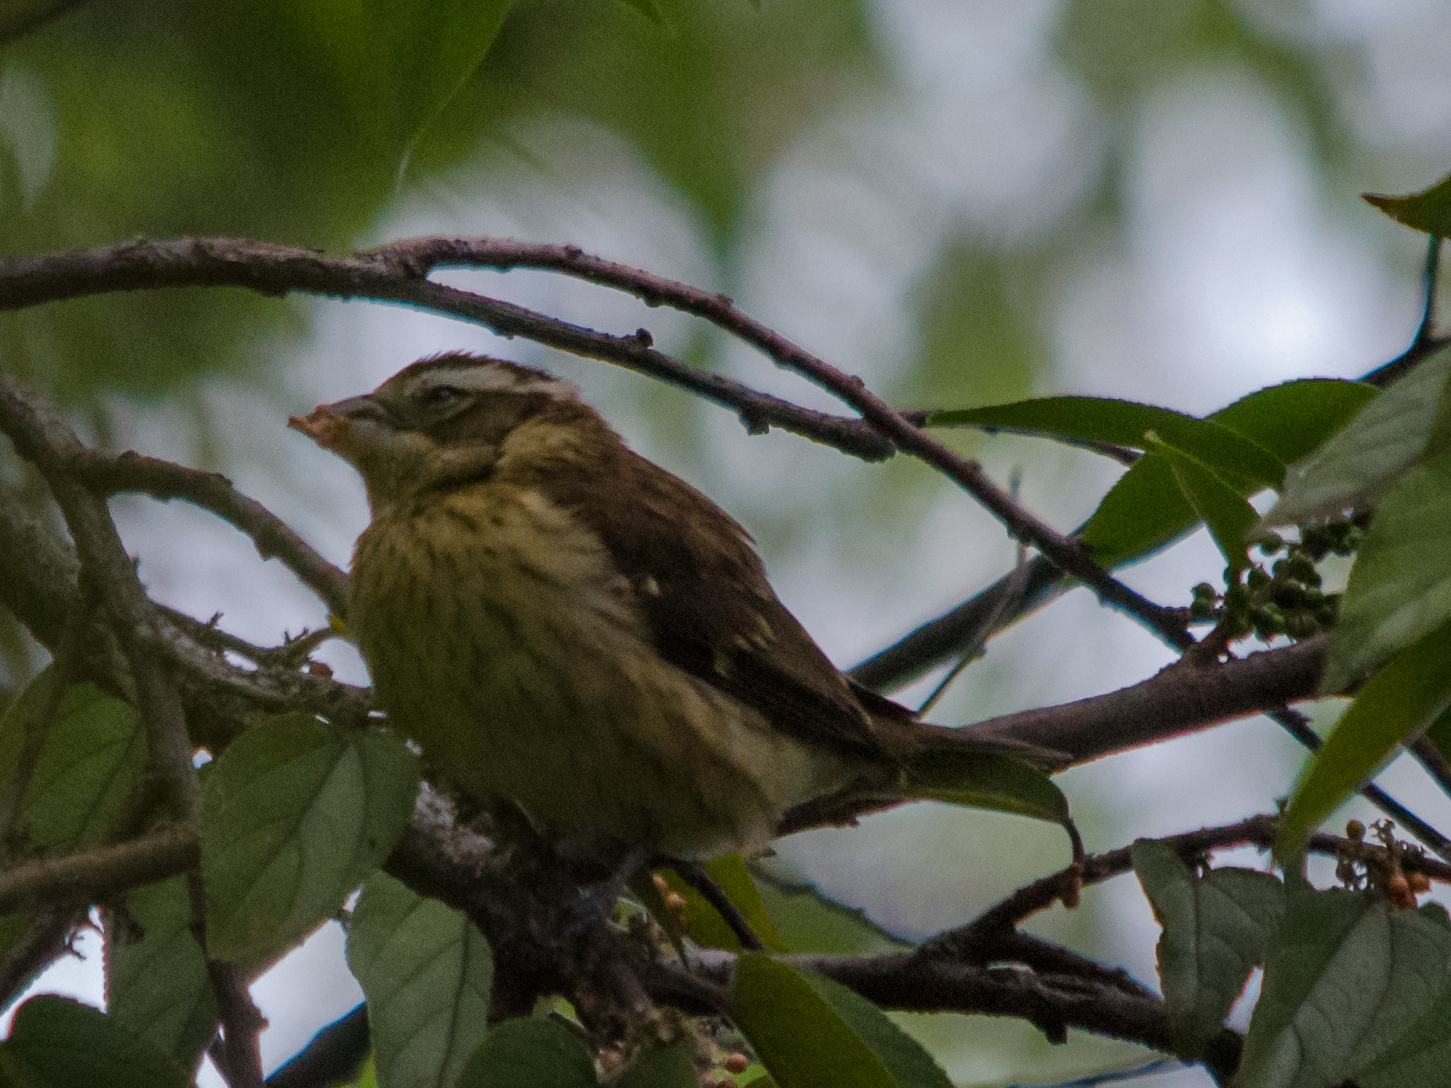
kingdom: Animalia
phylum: Chordata
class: Aves
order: Passeriformes
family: Cardinalidae
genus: Pheucticus
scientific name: Pheucticus ludovicianus
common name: Rose-breasted grosbeak
